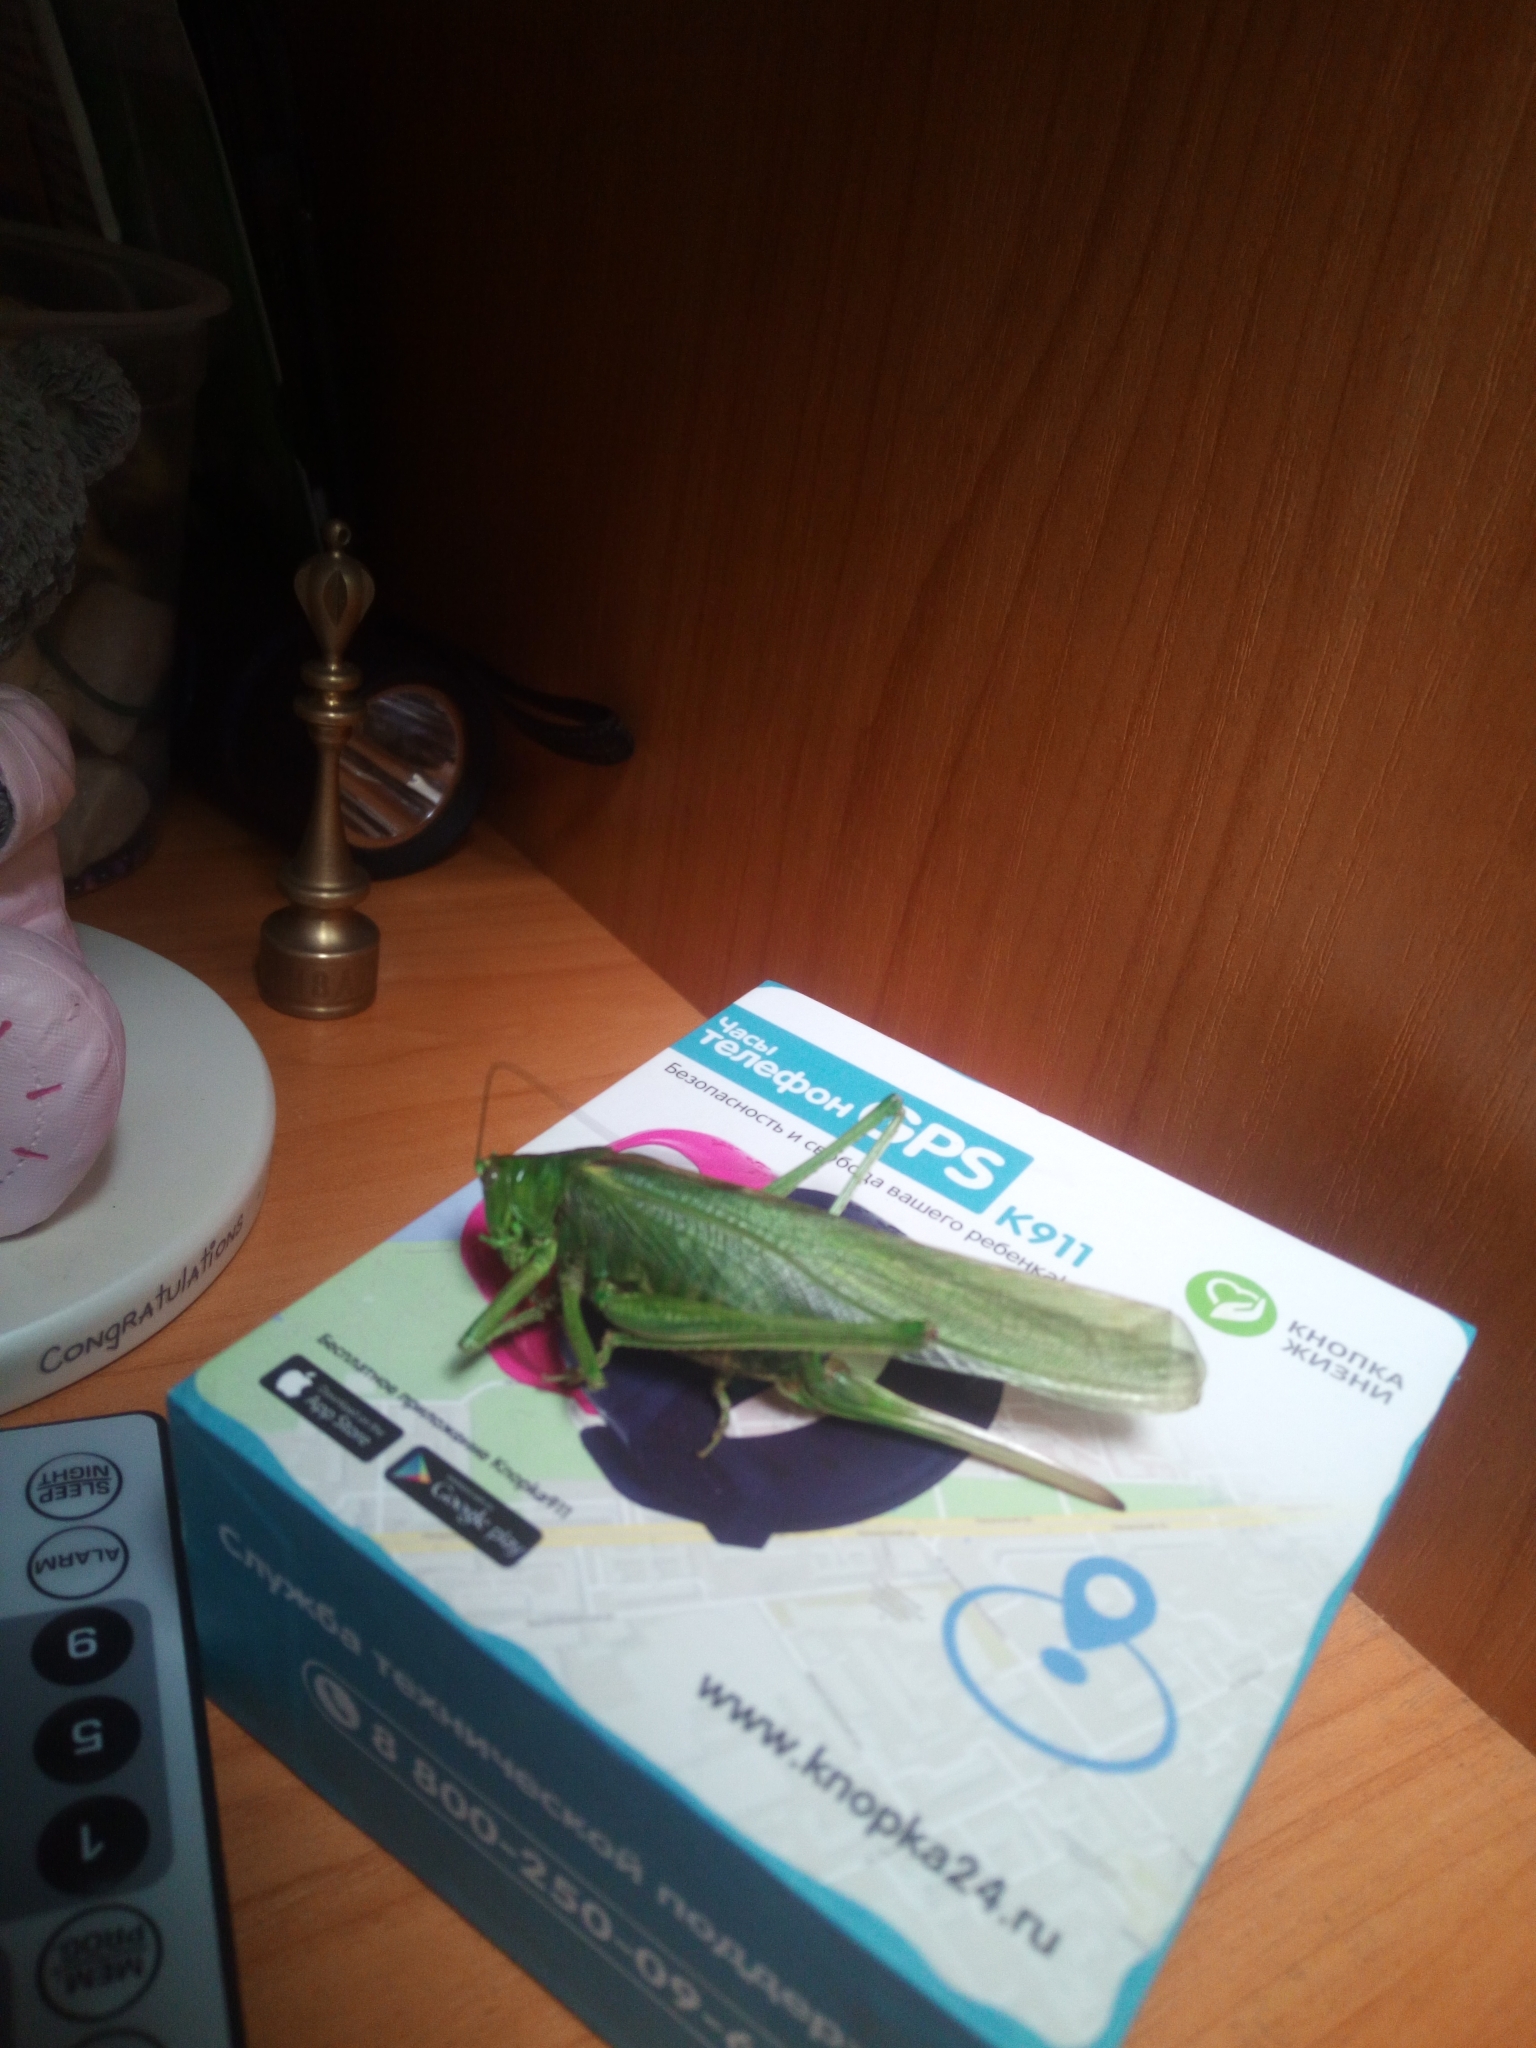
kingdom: Animalia
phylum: Arthropoda
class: Insecta
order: Orthoptera
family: Tettigoniidae
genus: Tettigonia
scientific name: Tettigonia viridissima
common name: Great green bush-cricket
